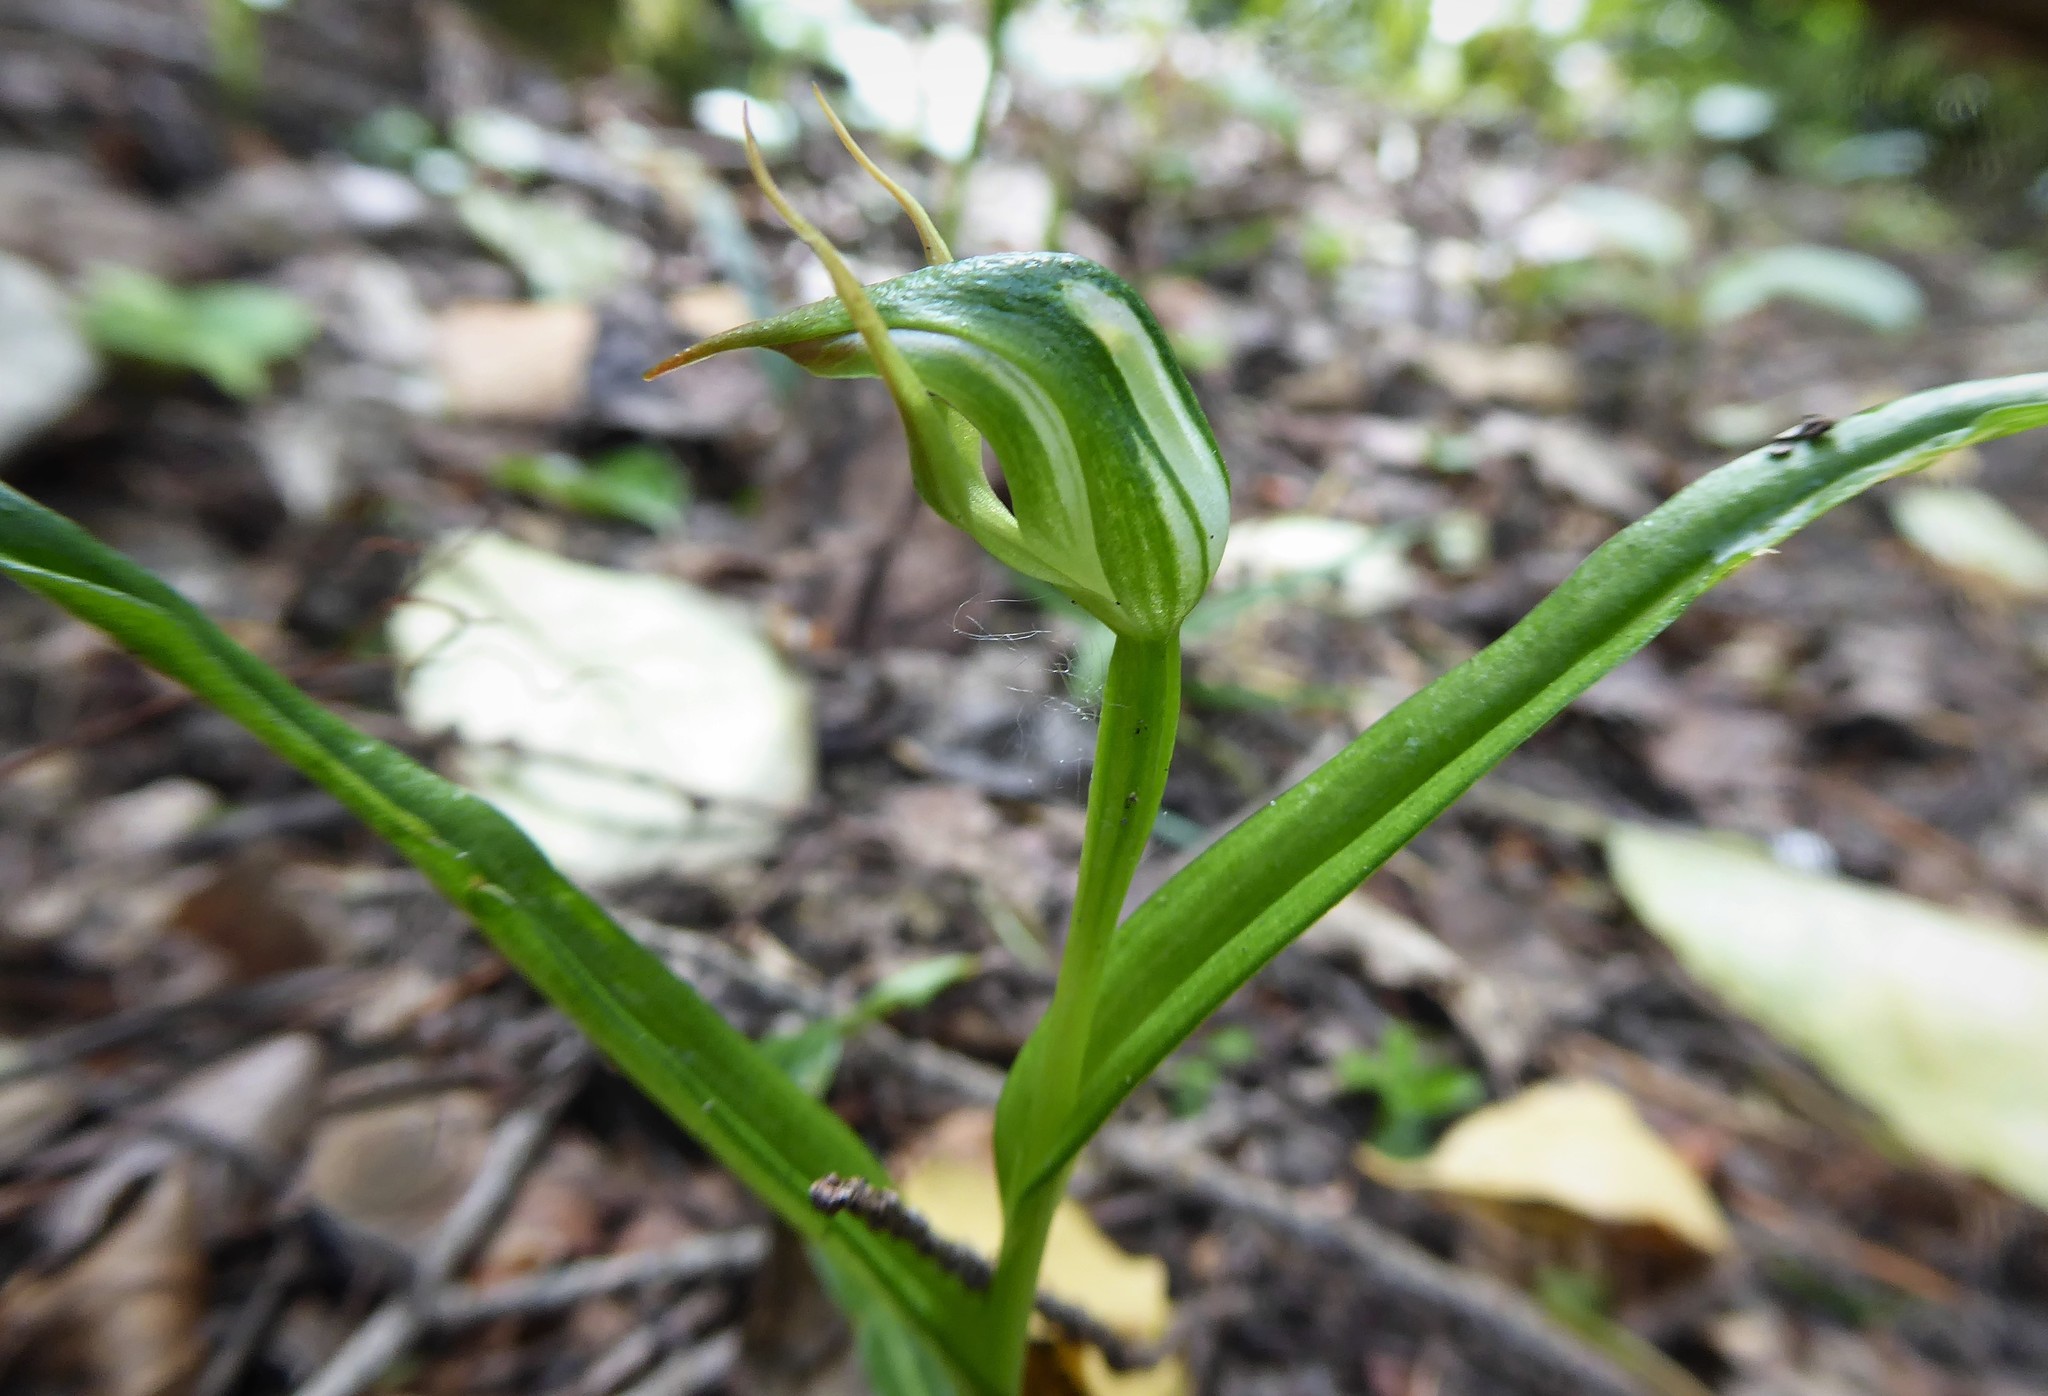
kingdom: Plantae
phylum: Tracheophyta
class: Liliopsida
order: Asparagales
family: Orchidaceae
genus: Pterostylis
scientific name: Pterostylis graminea
